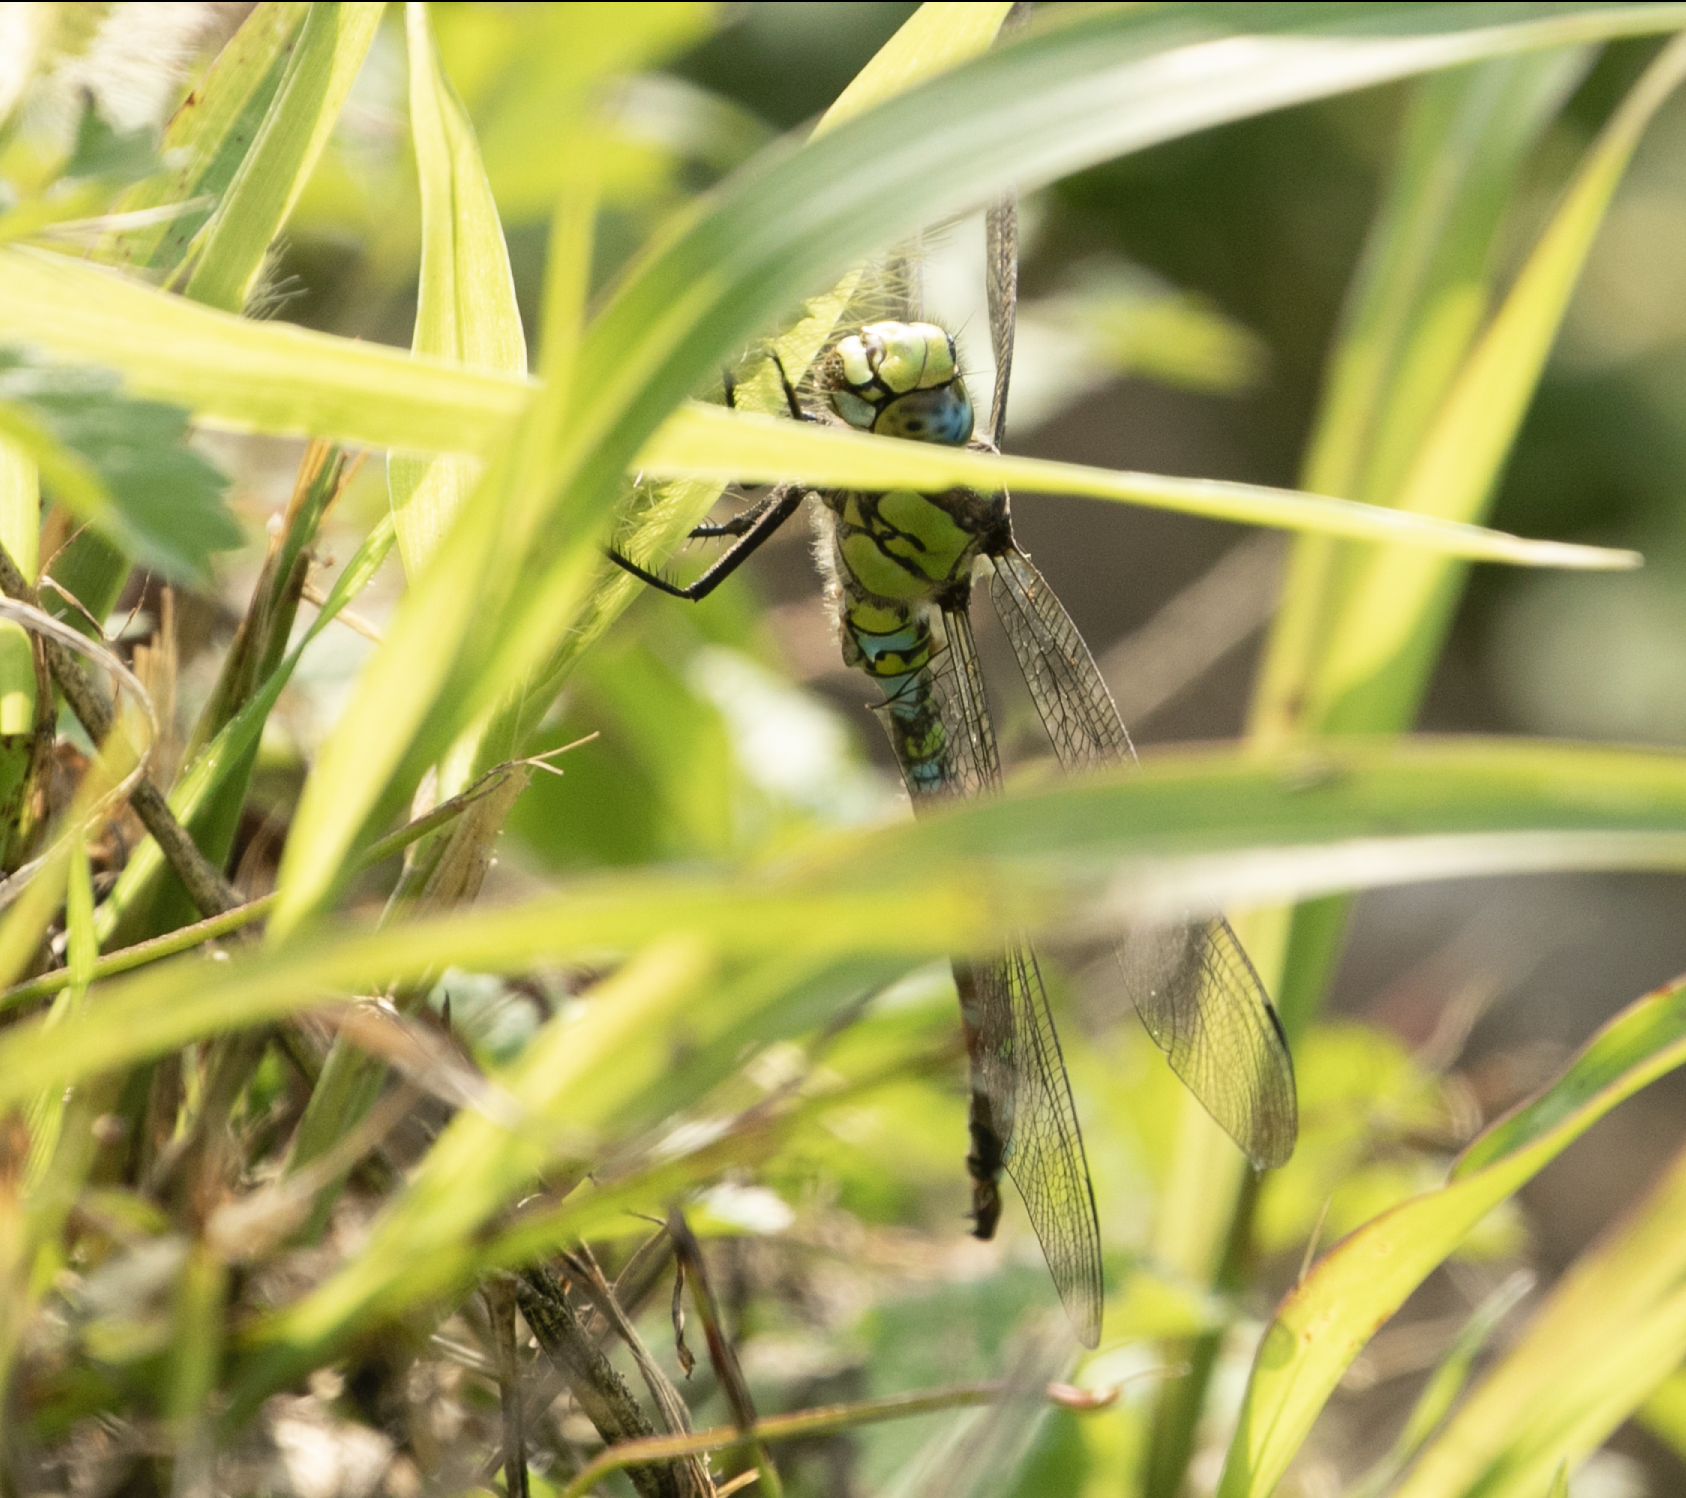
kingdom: Animalia
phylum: Arthropoda
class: Insecta
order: Odonata
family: Aeshnidae
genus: Aeshna
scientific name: Aeshna cyanea
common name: Southern hawker
